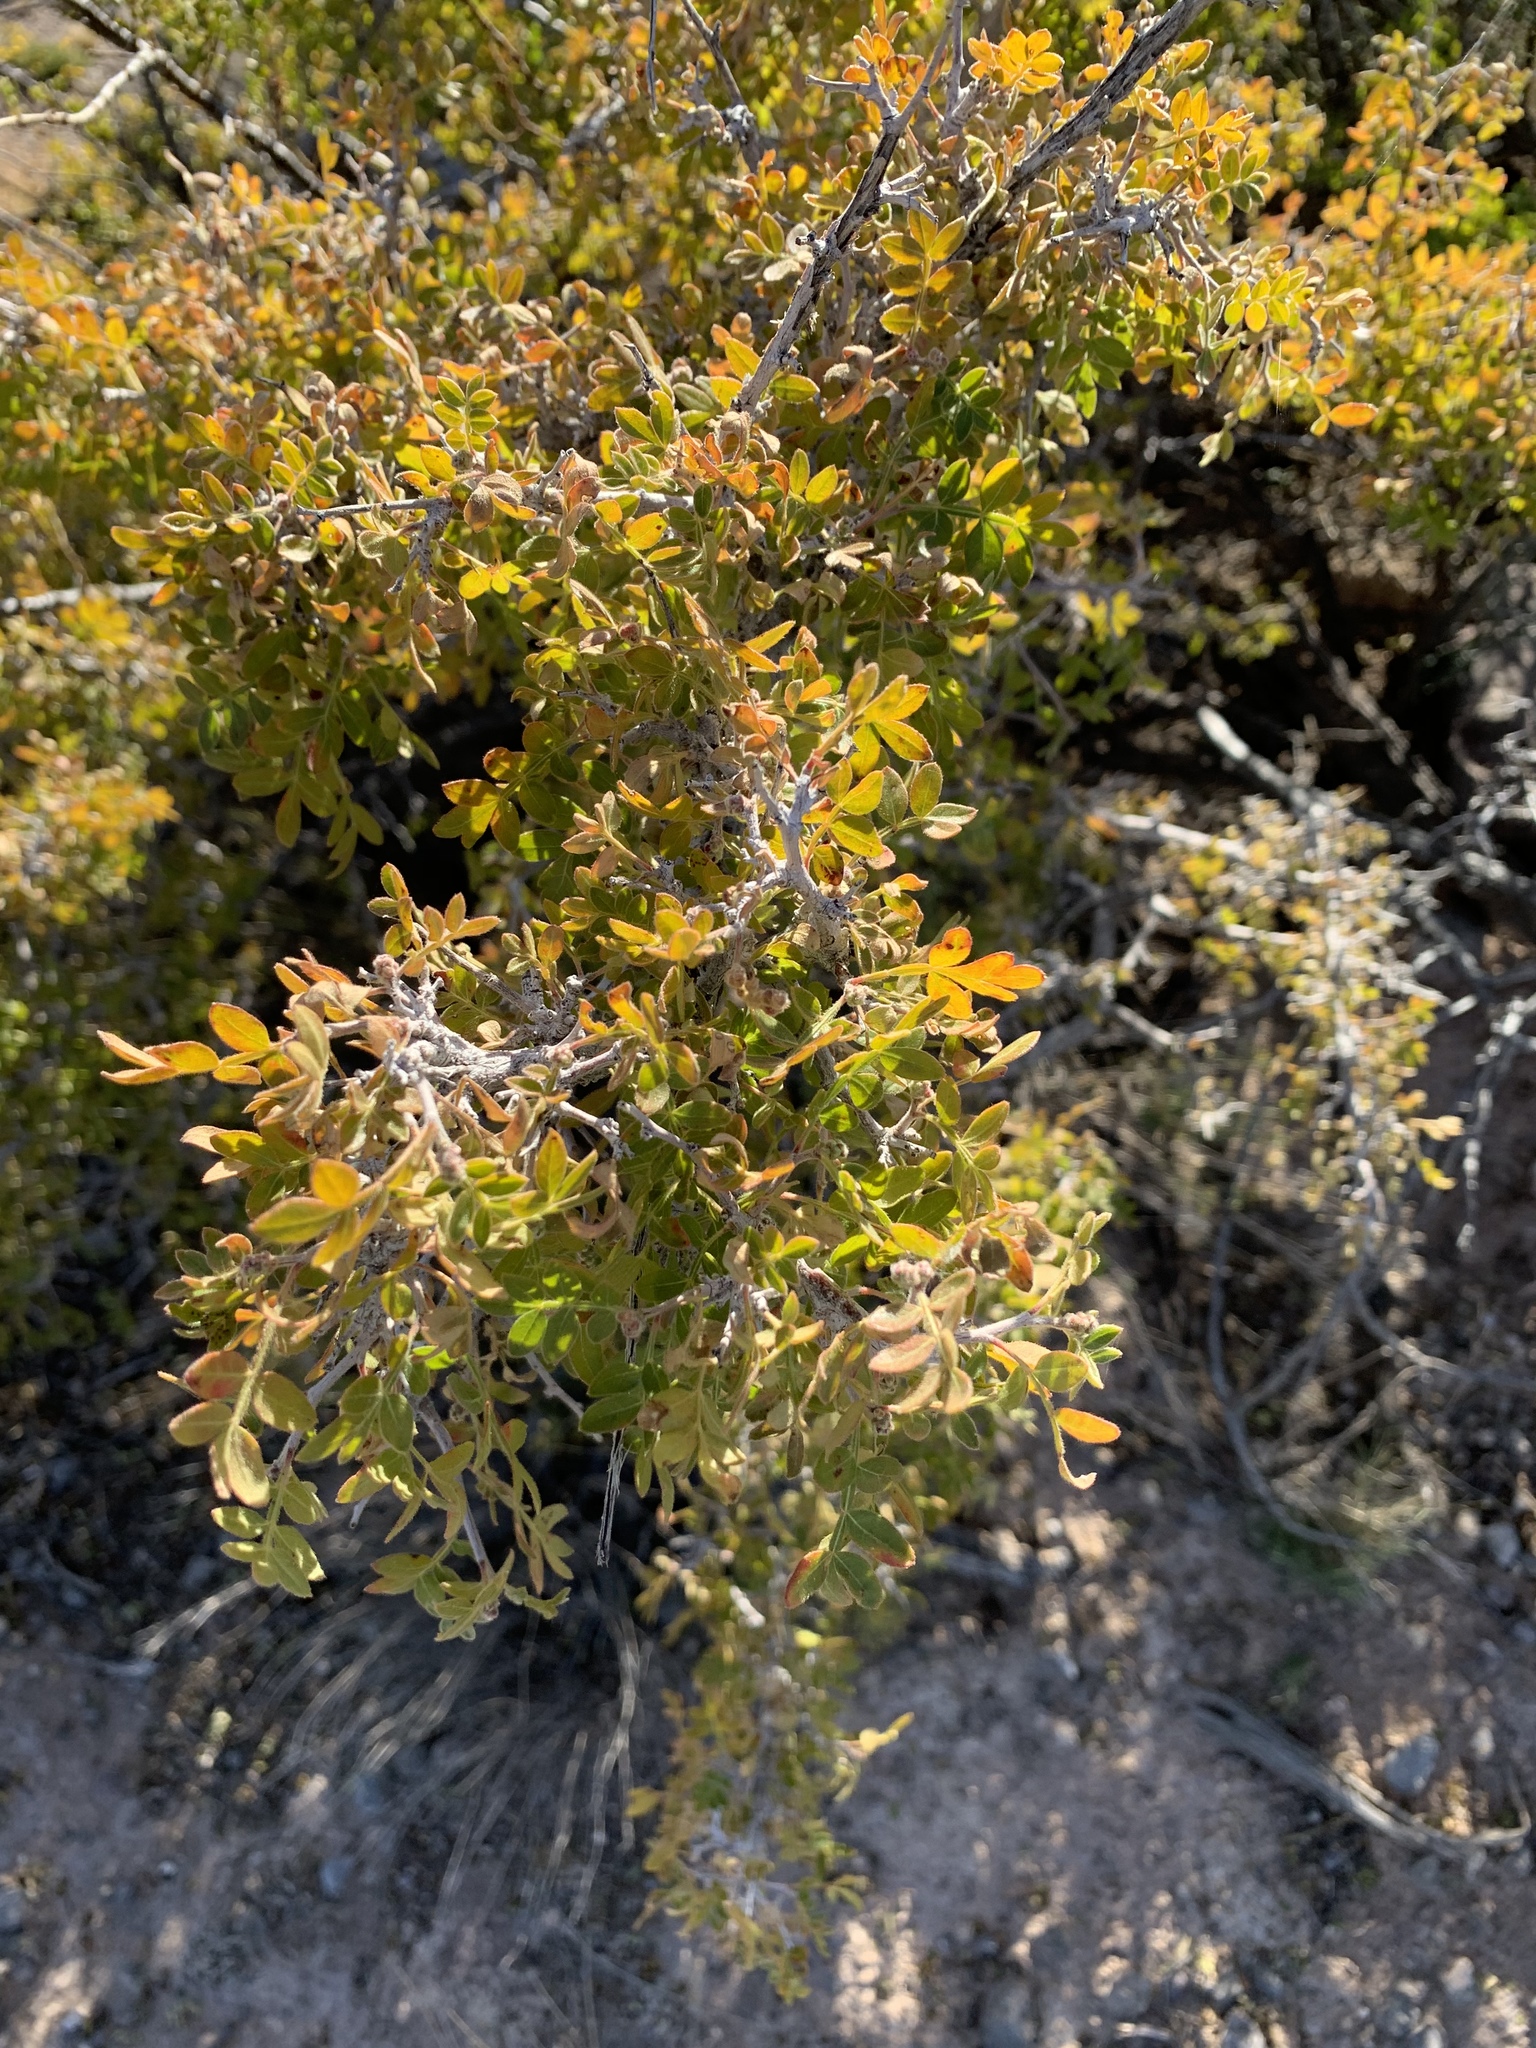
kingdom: Plantae
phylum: Tracheophyta
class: Magnoliopsida
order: Sapindales
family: Anacardiaceae
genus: Rhus
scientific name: Rhus microphylla
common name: Desert sumac
